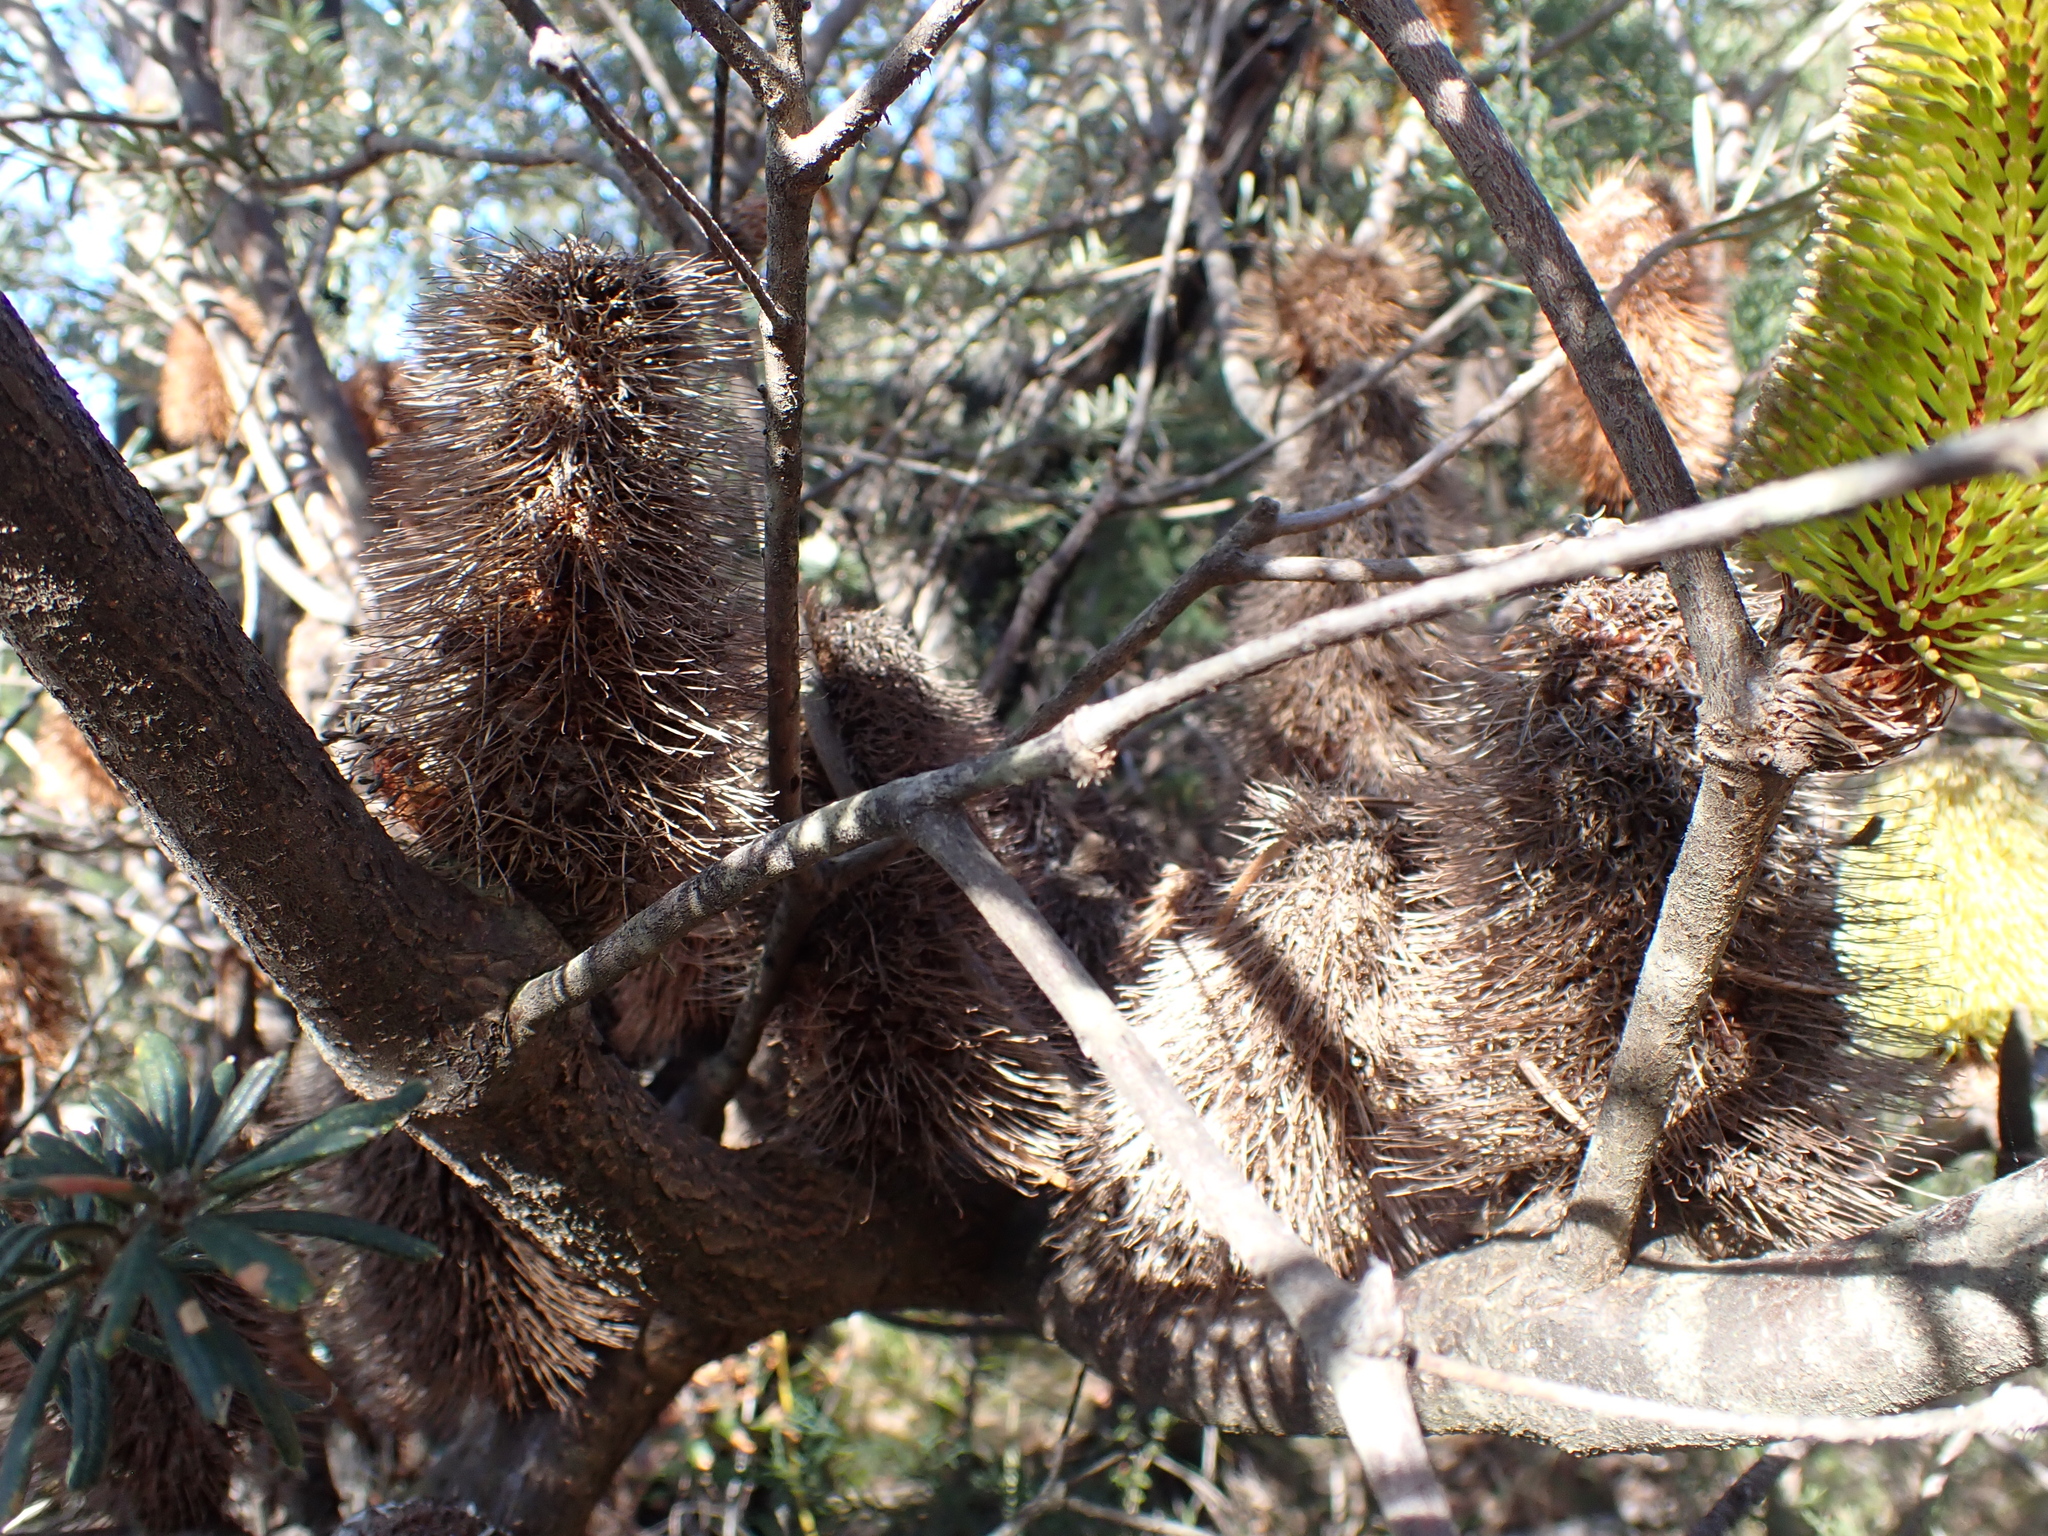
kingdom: Plantae
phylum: Tracheophyta
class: Magnoliopsida
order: Proteales
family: Proteaceae
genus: Banksia
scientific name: Banksia marginata
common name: Silver banksia
